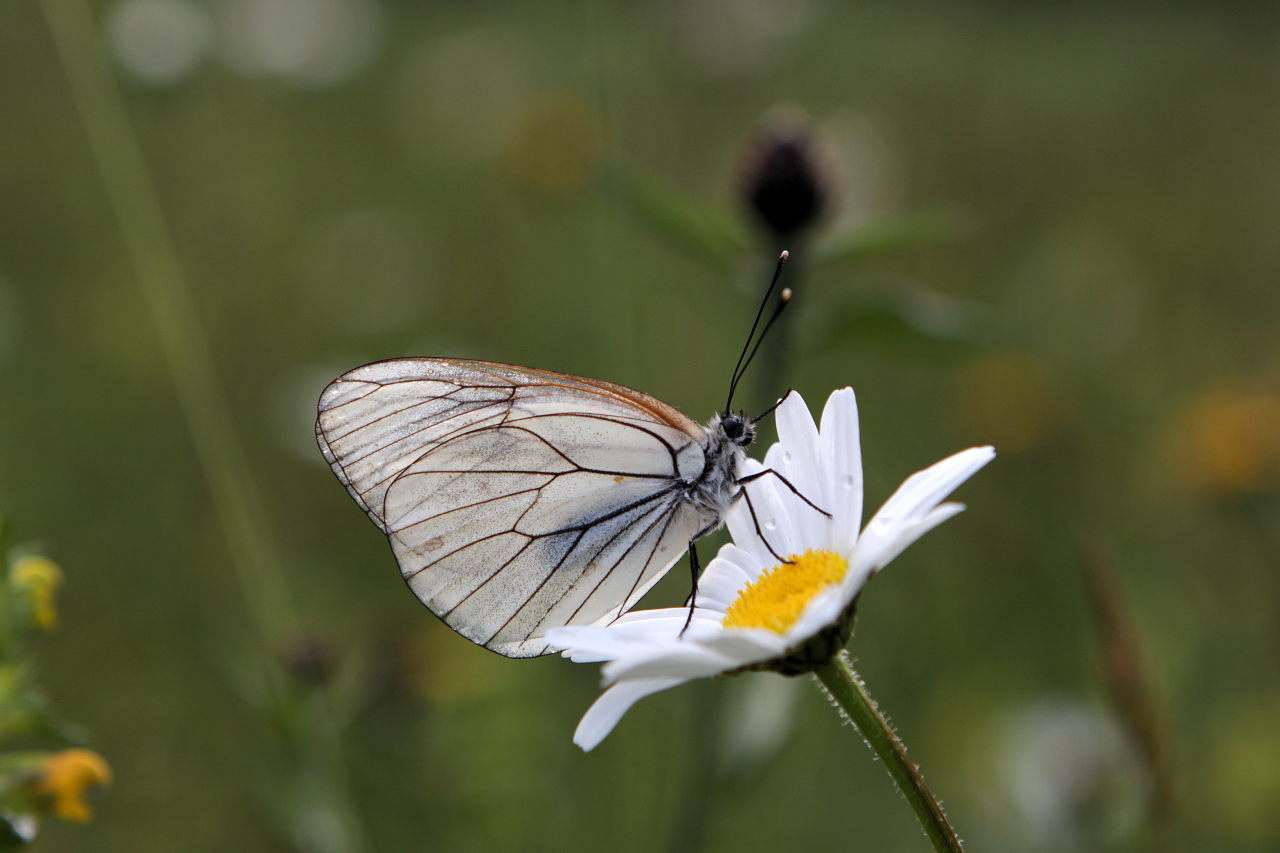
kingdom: Animalia
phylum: Arthropoda
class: Insecta
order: Lepidoptera
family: Pieridae
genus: Aporia
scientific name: Aporia crataegi
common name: Black-veined white
